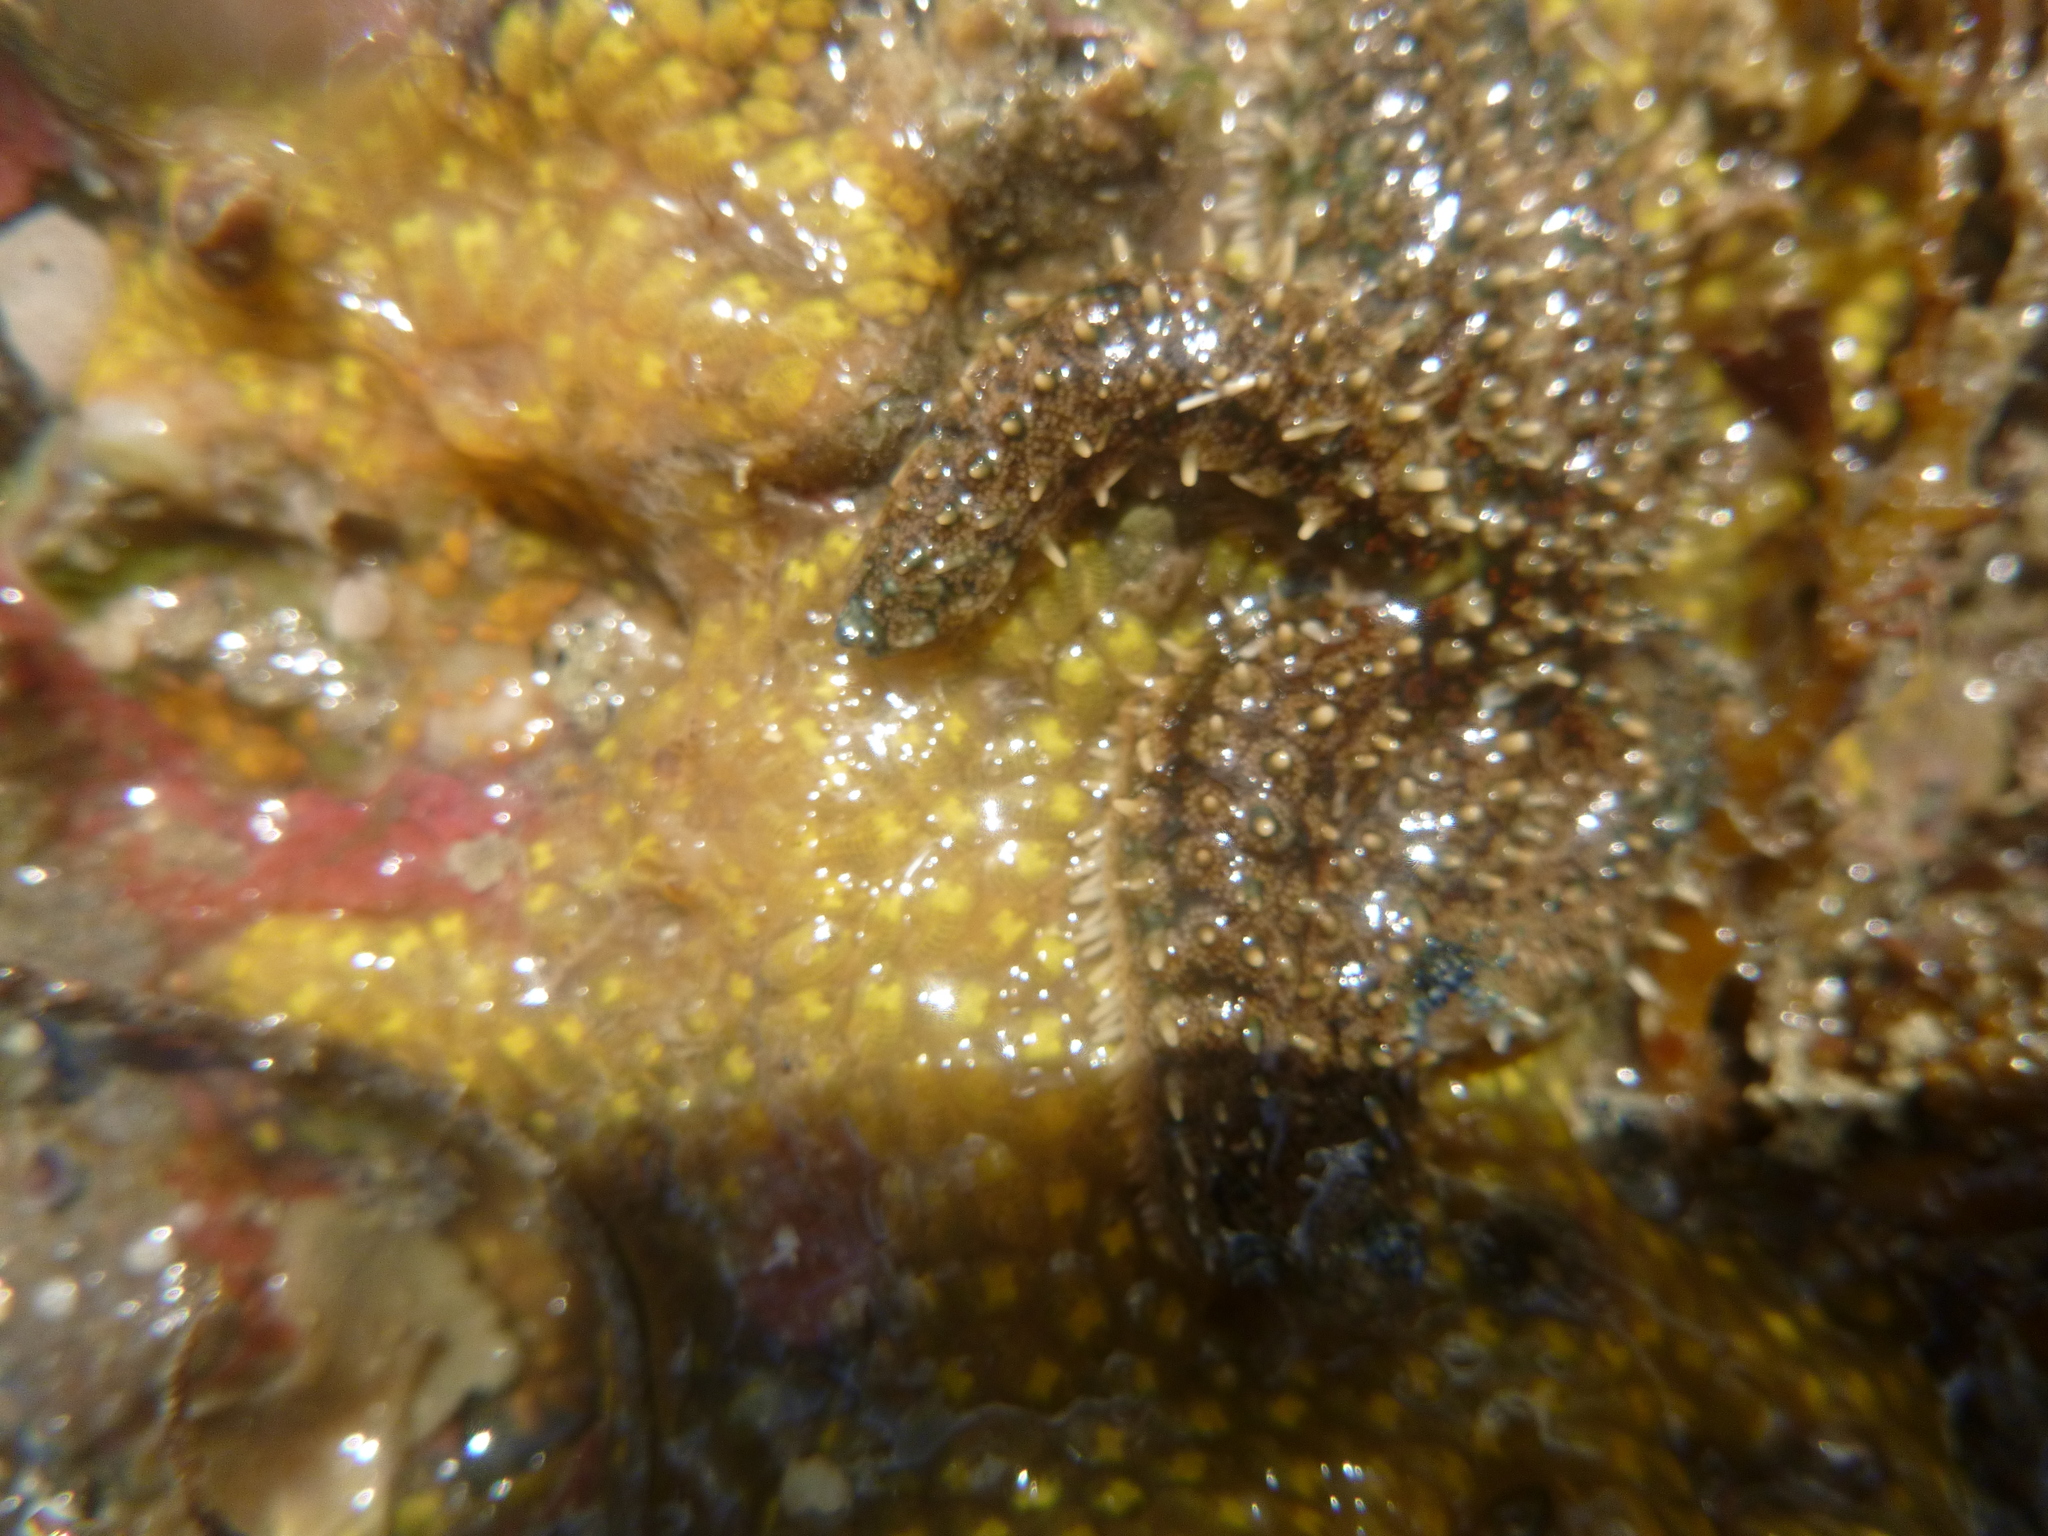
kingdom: Animalia
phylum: Echinodermata
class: Asteroidea
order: Forcipulatida
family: Asteriidae
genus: Coscinasterias
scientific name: Coscinasterias muricata
